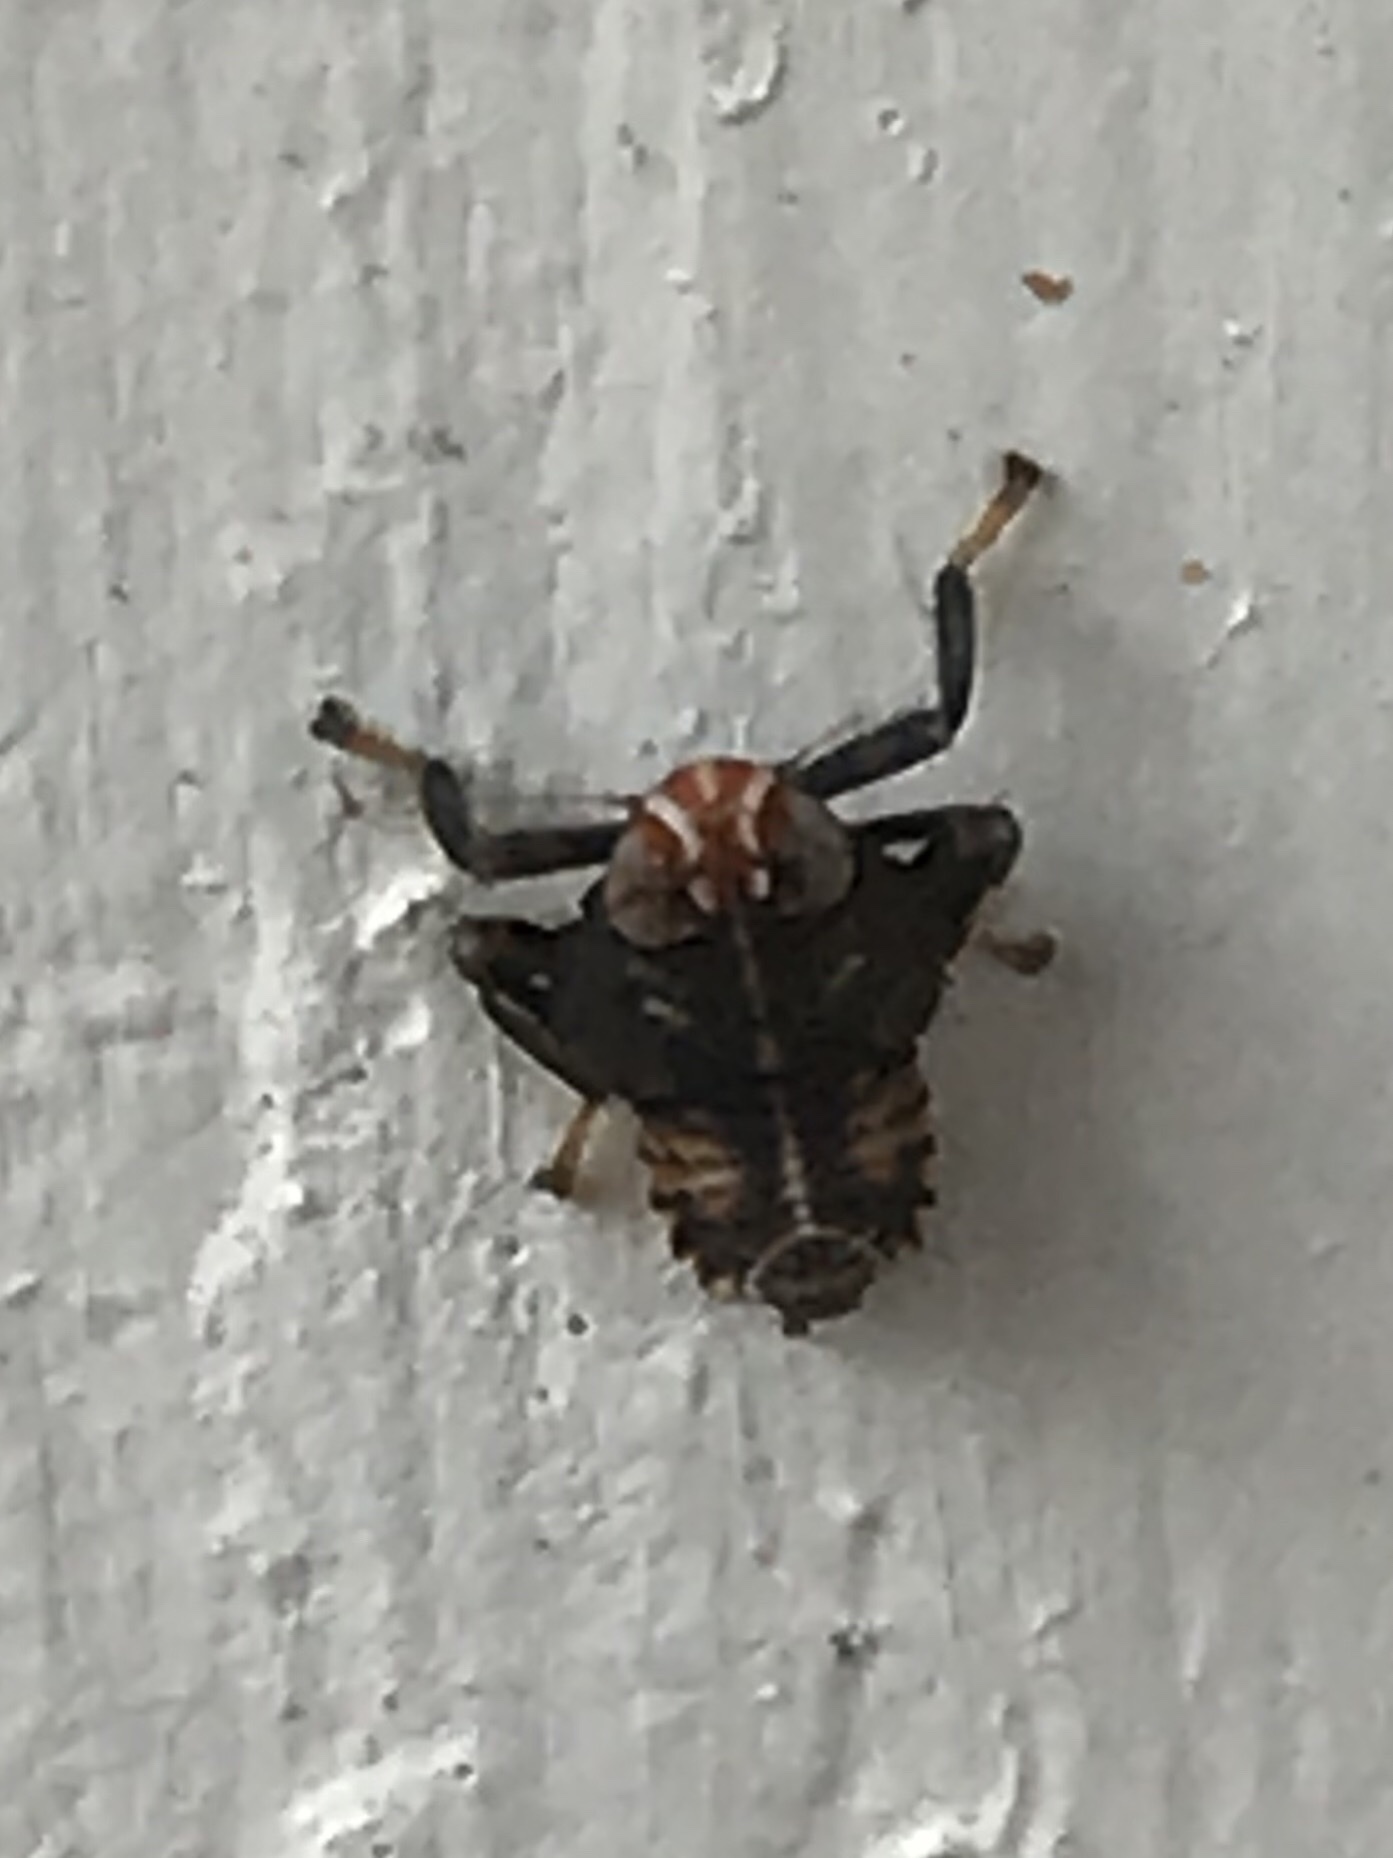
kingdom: Animalia
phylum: Arthropoda
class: Insecta
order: Hemiptera
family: Cicadellidae
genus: Jikradia
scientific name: Jikradia olitoria
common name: Coppery leafhopper
